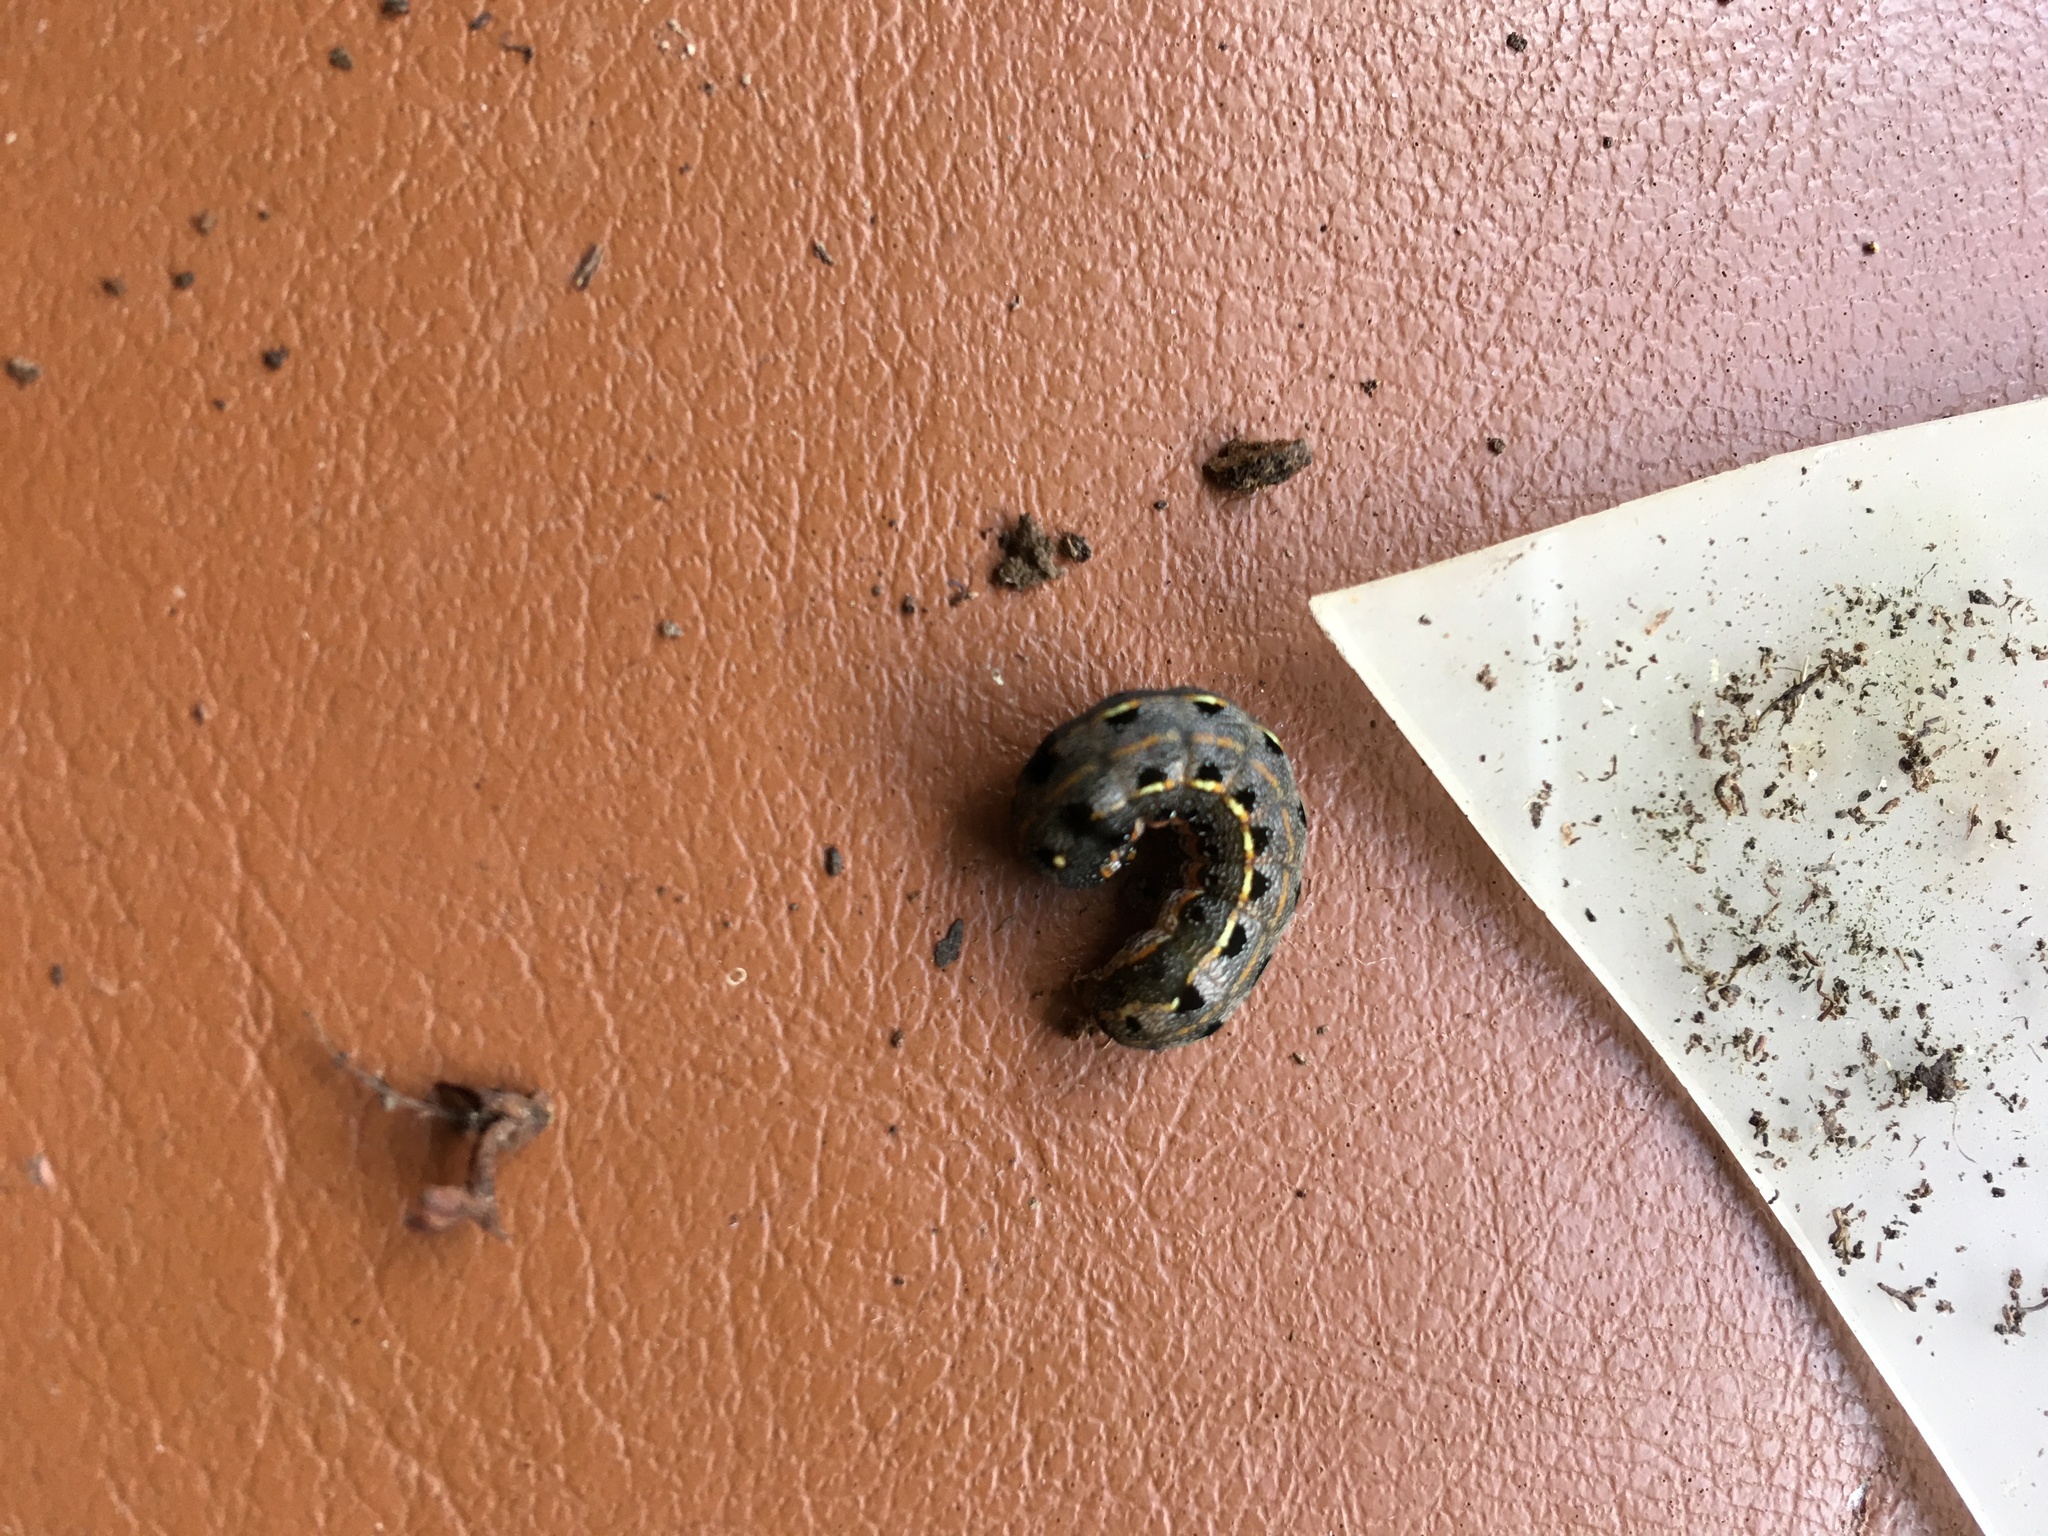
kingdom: Animalia
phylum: Arthropoda
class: Insecta
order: Lepidoptera
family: Noctuidae
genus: Spodoptera
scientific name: Spodoptera litura
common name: Asian cotton leafworm
